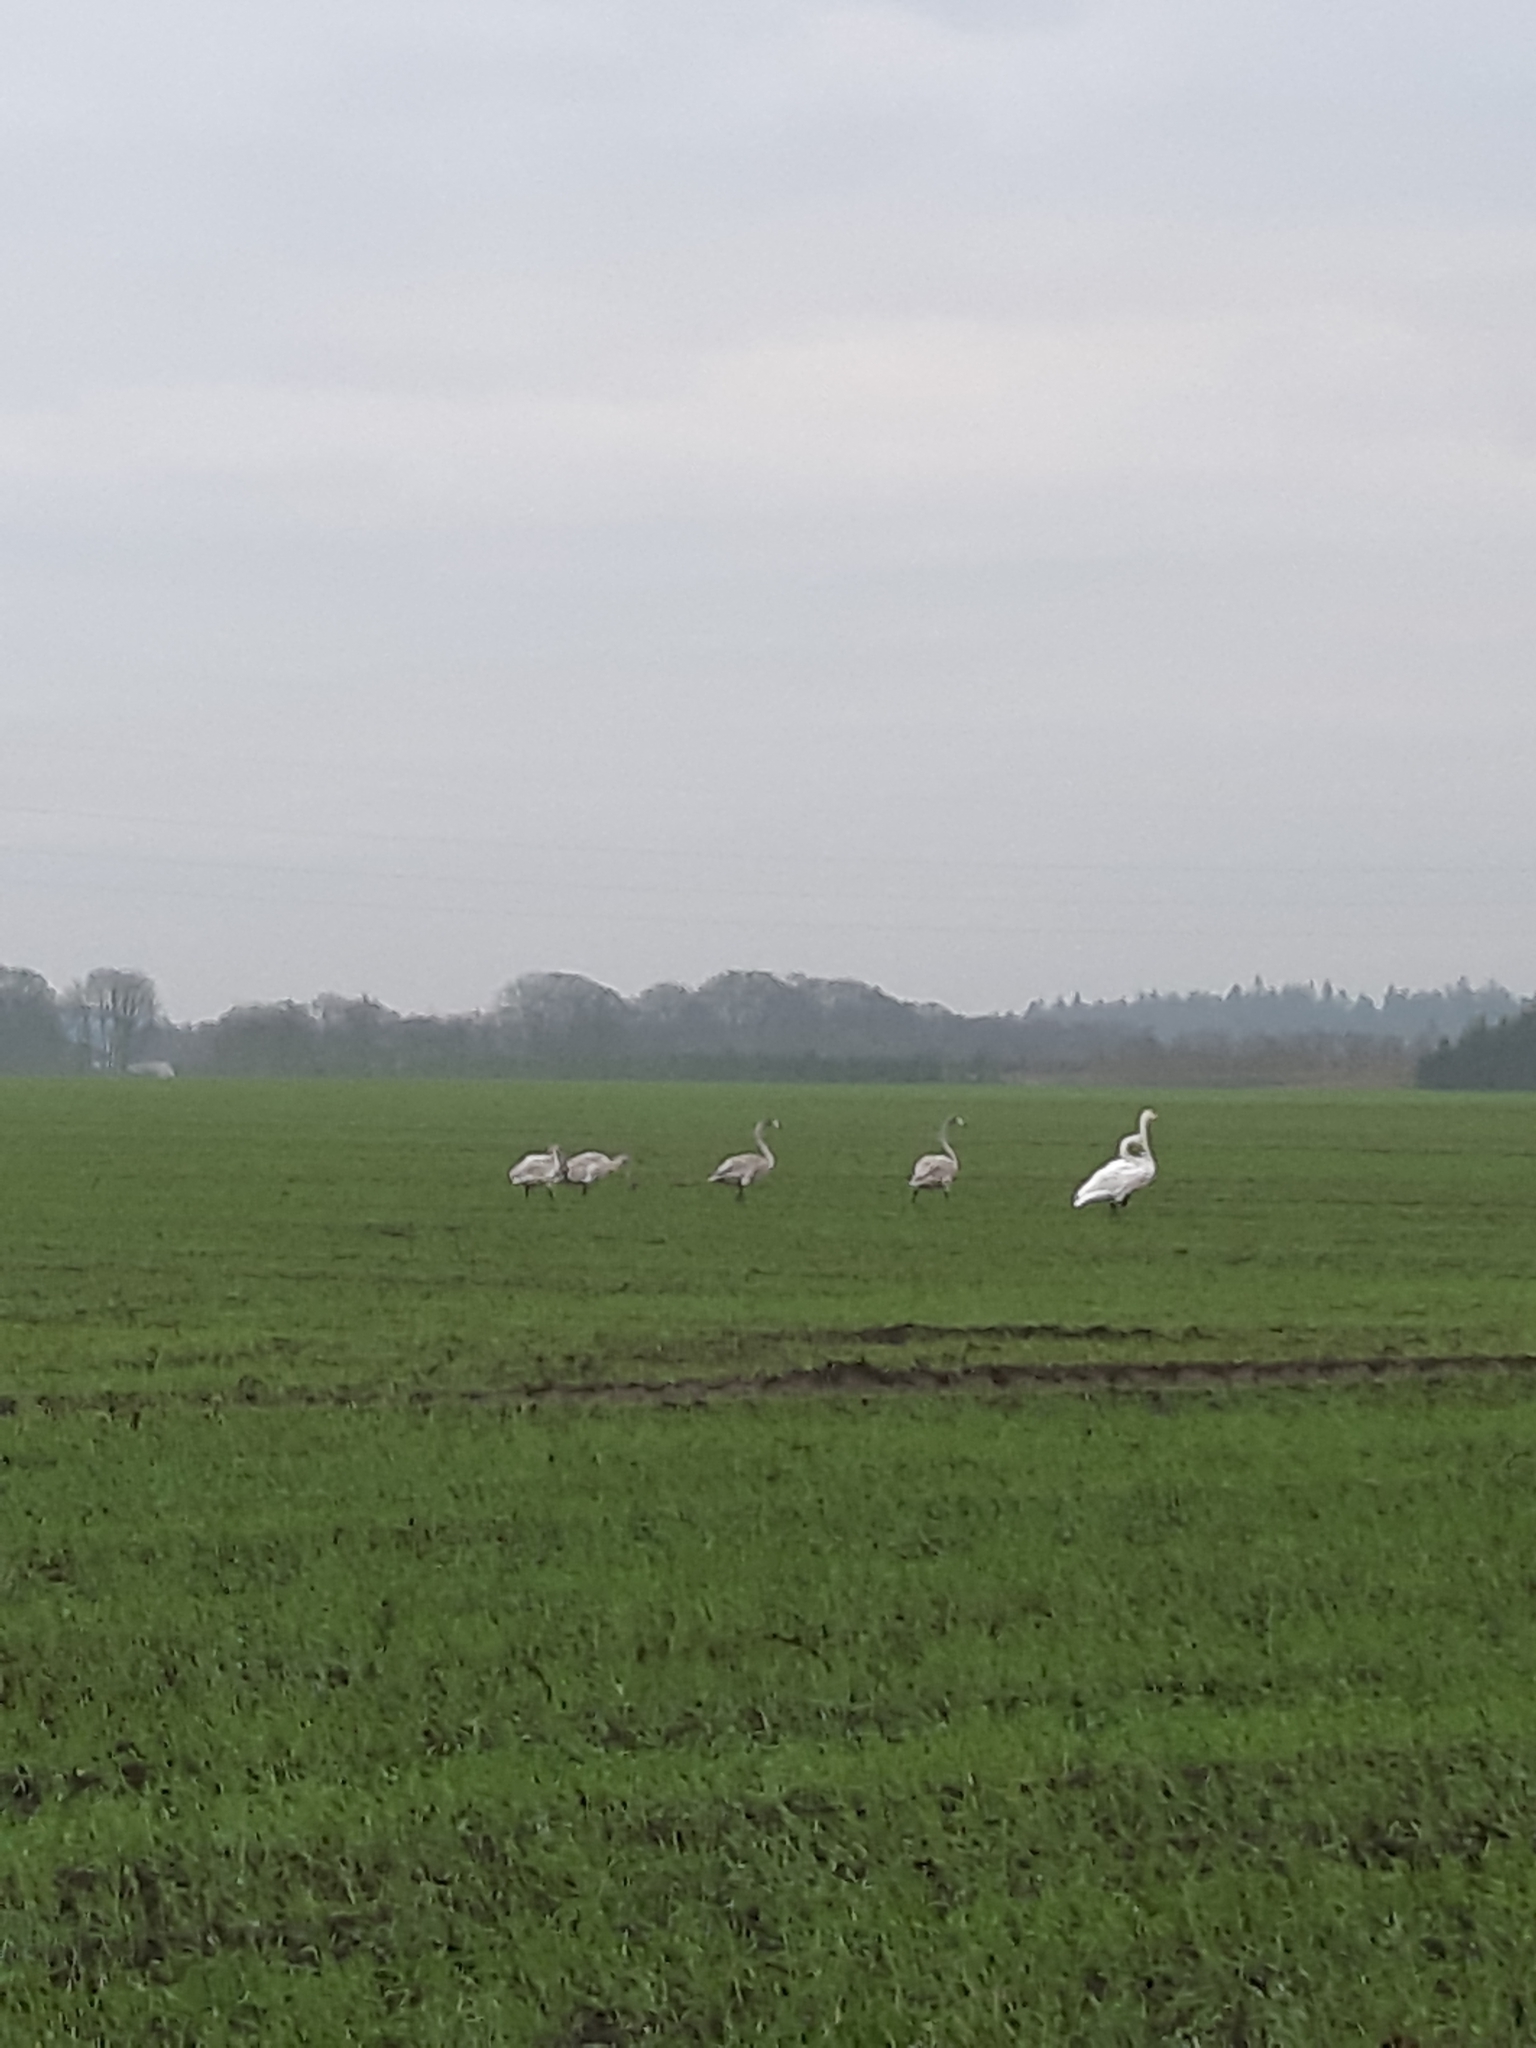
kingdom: Animalia
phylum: Chordata
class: Aves
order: Anseriformes
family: Anatidae
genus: Cygnus
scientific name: Cygnus cygnus
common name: Whooper swan
